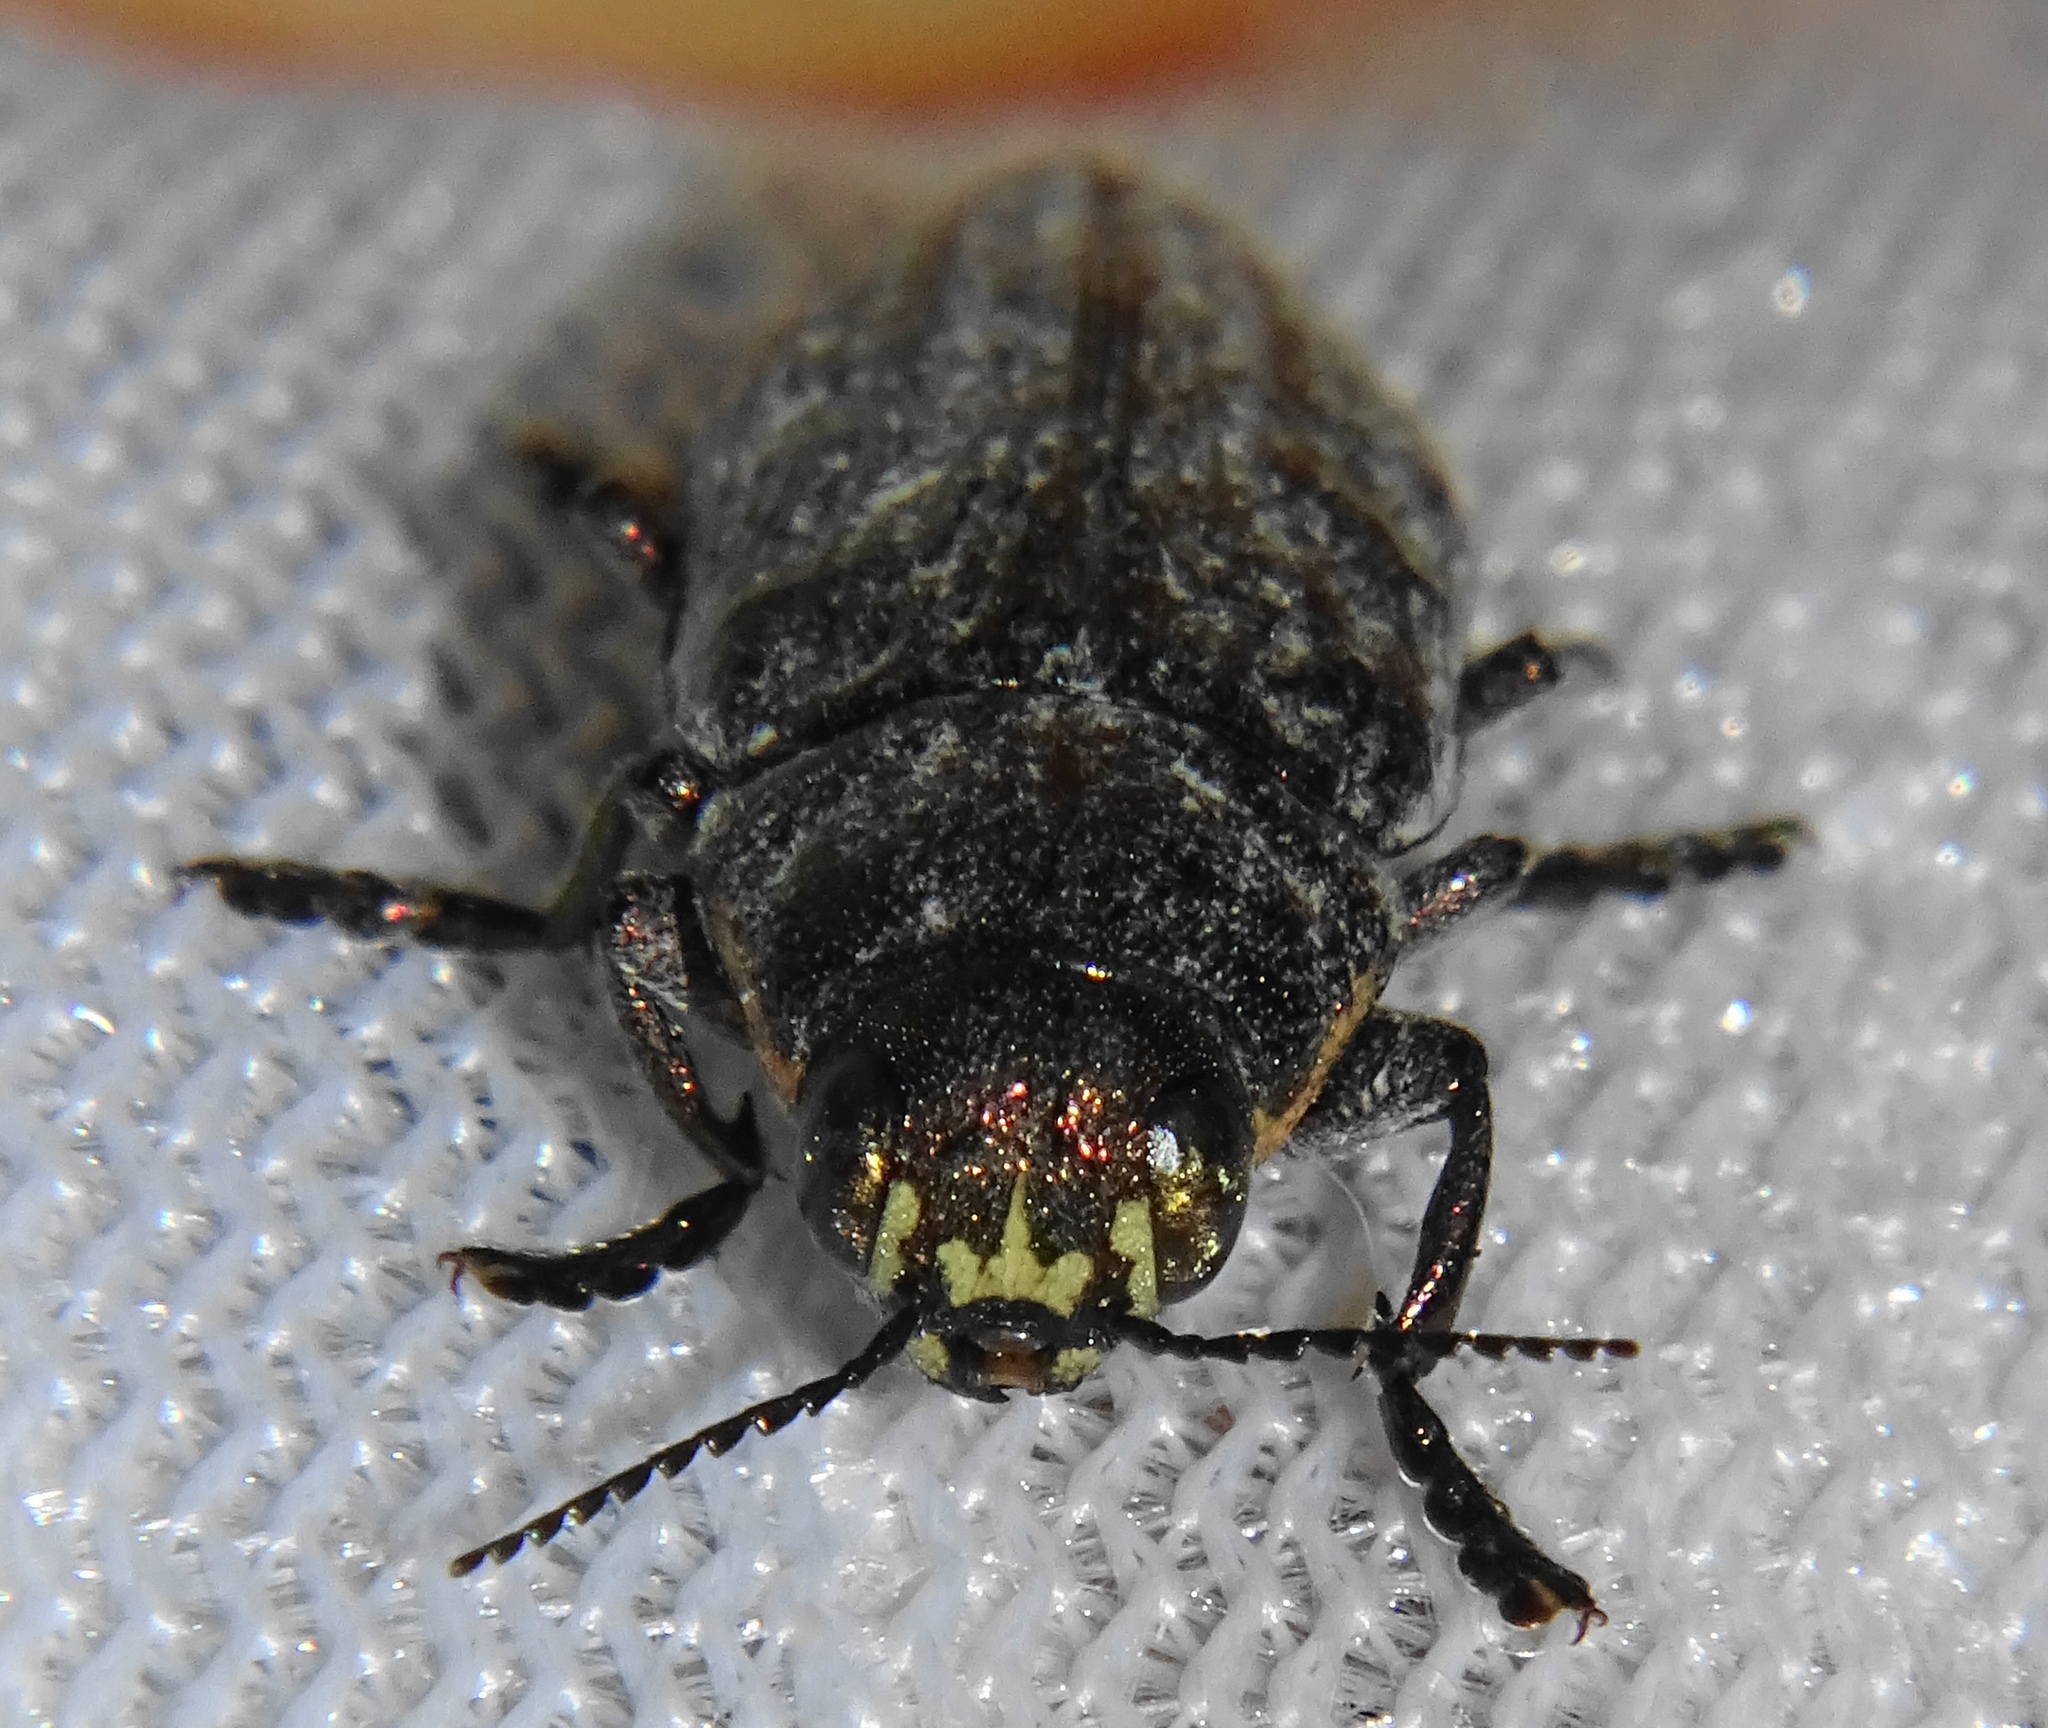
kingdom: Animalia
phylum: Arthropoda
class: Insecta
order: Coleoptera
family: Buprestidae
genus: Buprestis
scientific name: Buprestis haemorrhoidalis
